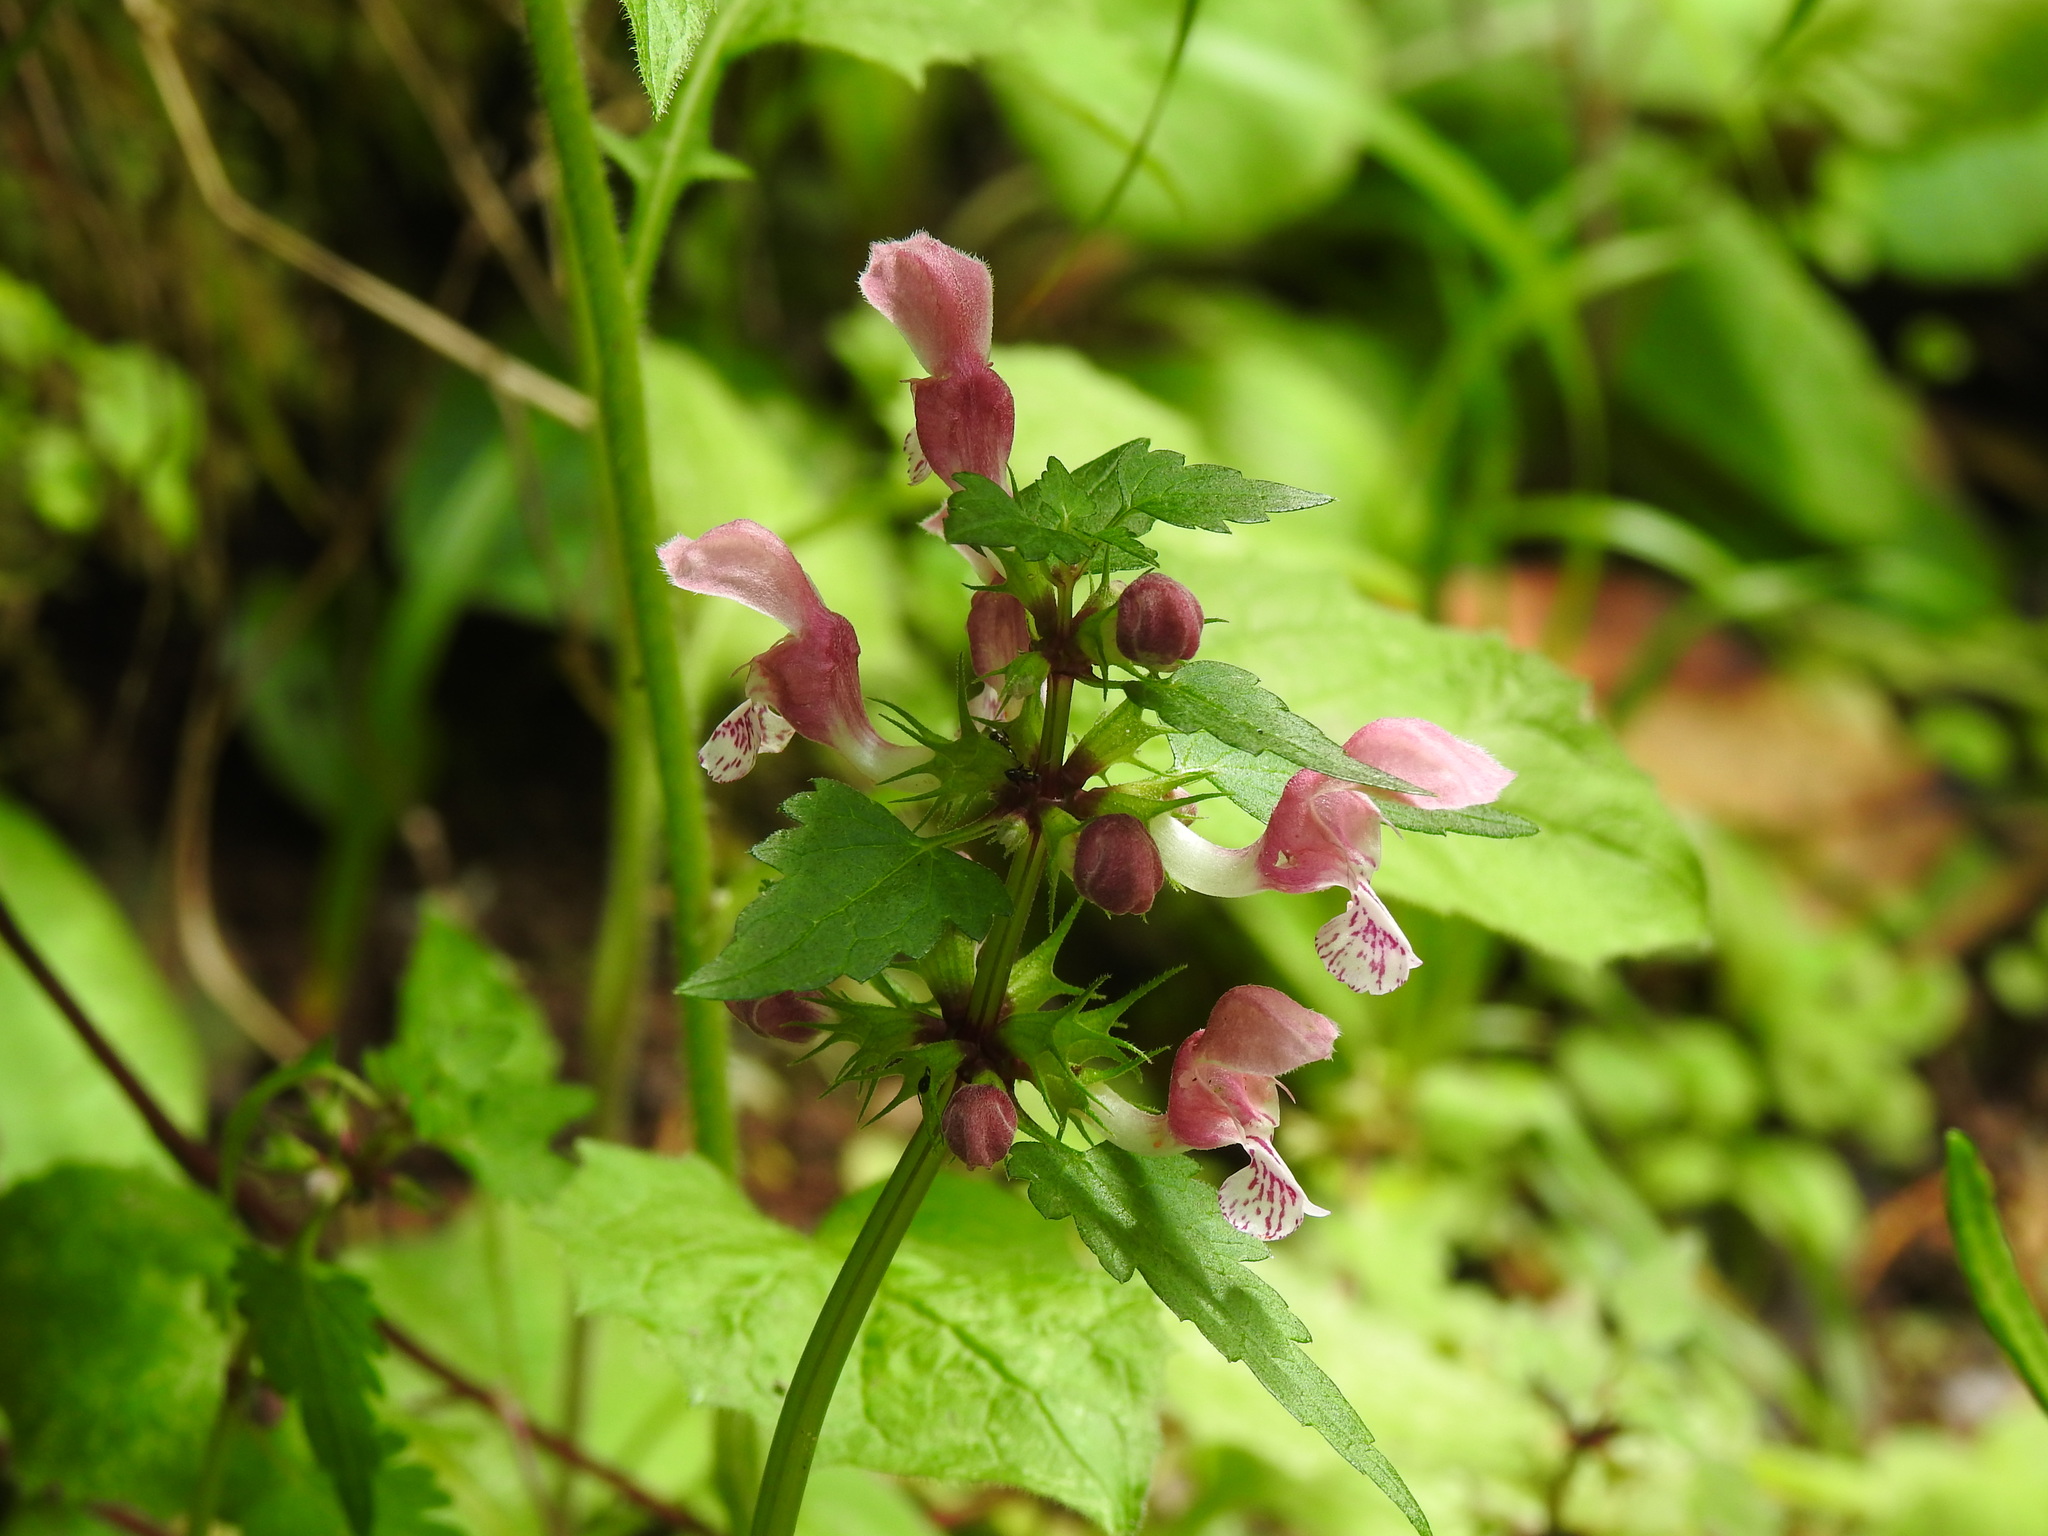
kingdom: Plantae
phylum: Tracheophyta
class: Magnoliopsida
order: Lamiales
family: Lamiaceae
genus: Lamium
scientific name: Lamium maculatum
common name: Spotted dead-nettle
